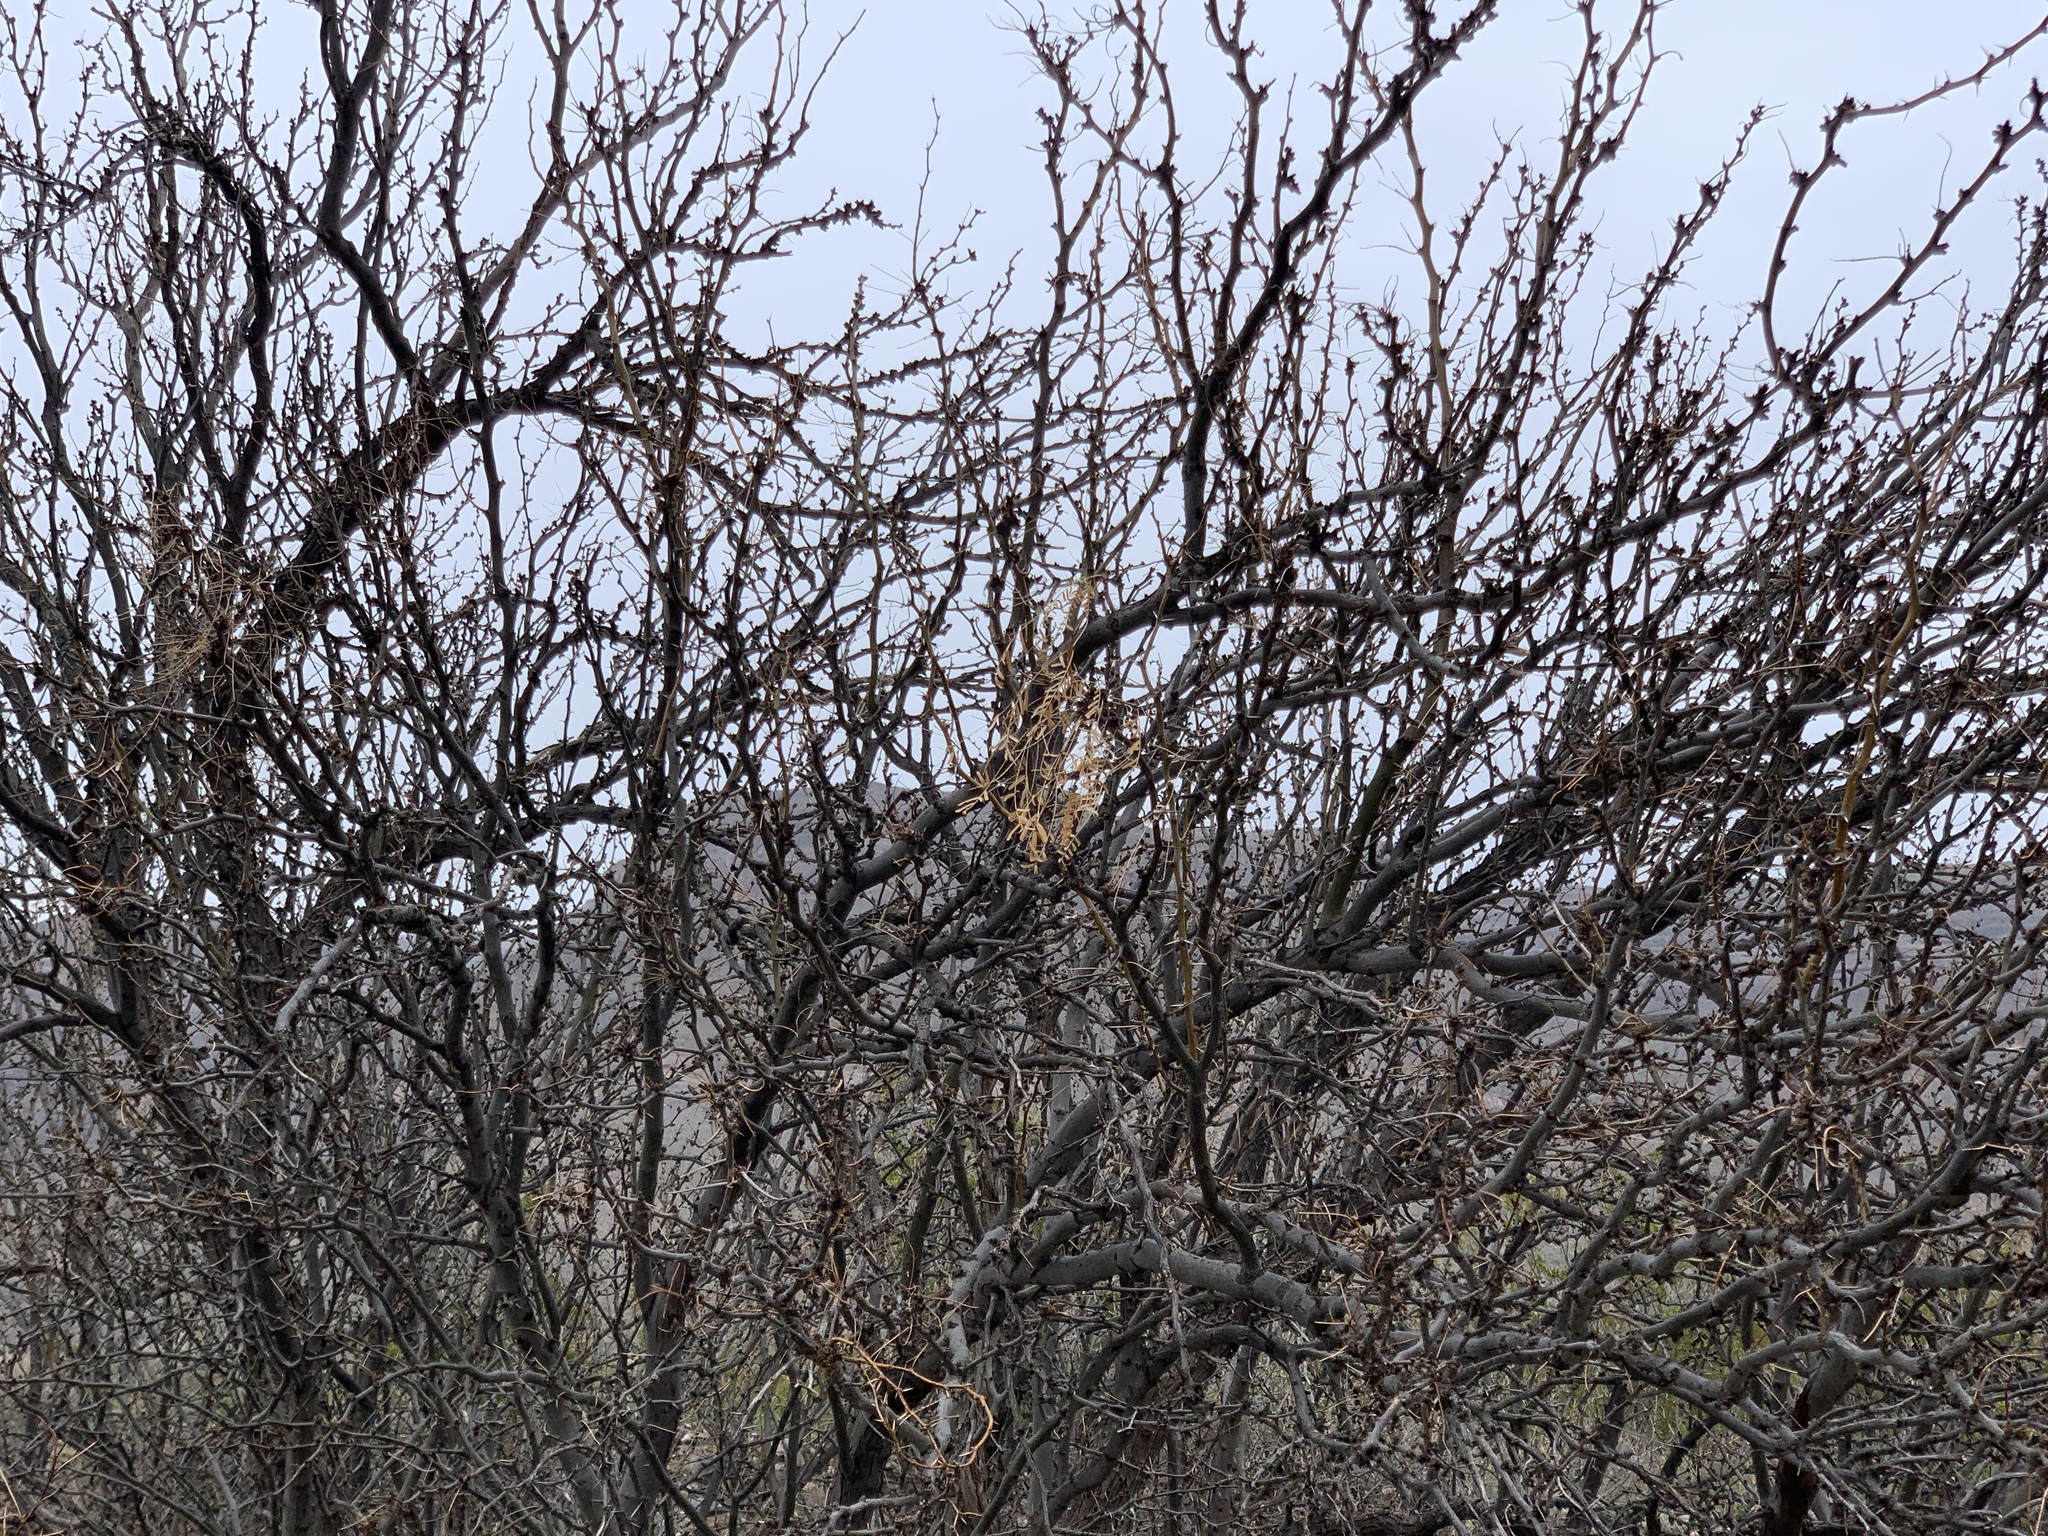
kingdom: Plantae
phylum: Tracheophyta
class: Magnoliopsida
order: Fabales
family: Fabaceae
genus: Prosopis
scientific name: Prosopis glandulosa
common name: Honey mesquite
